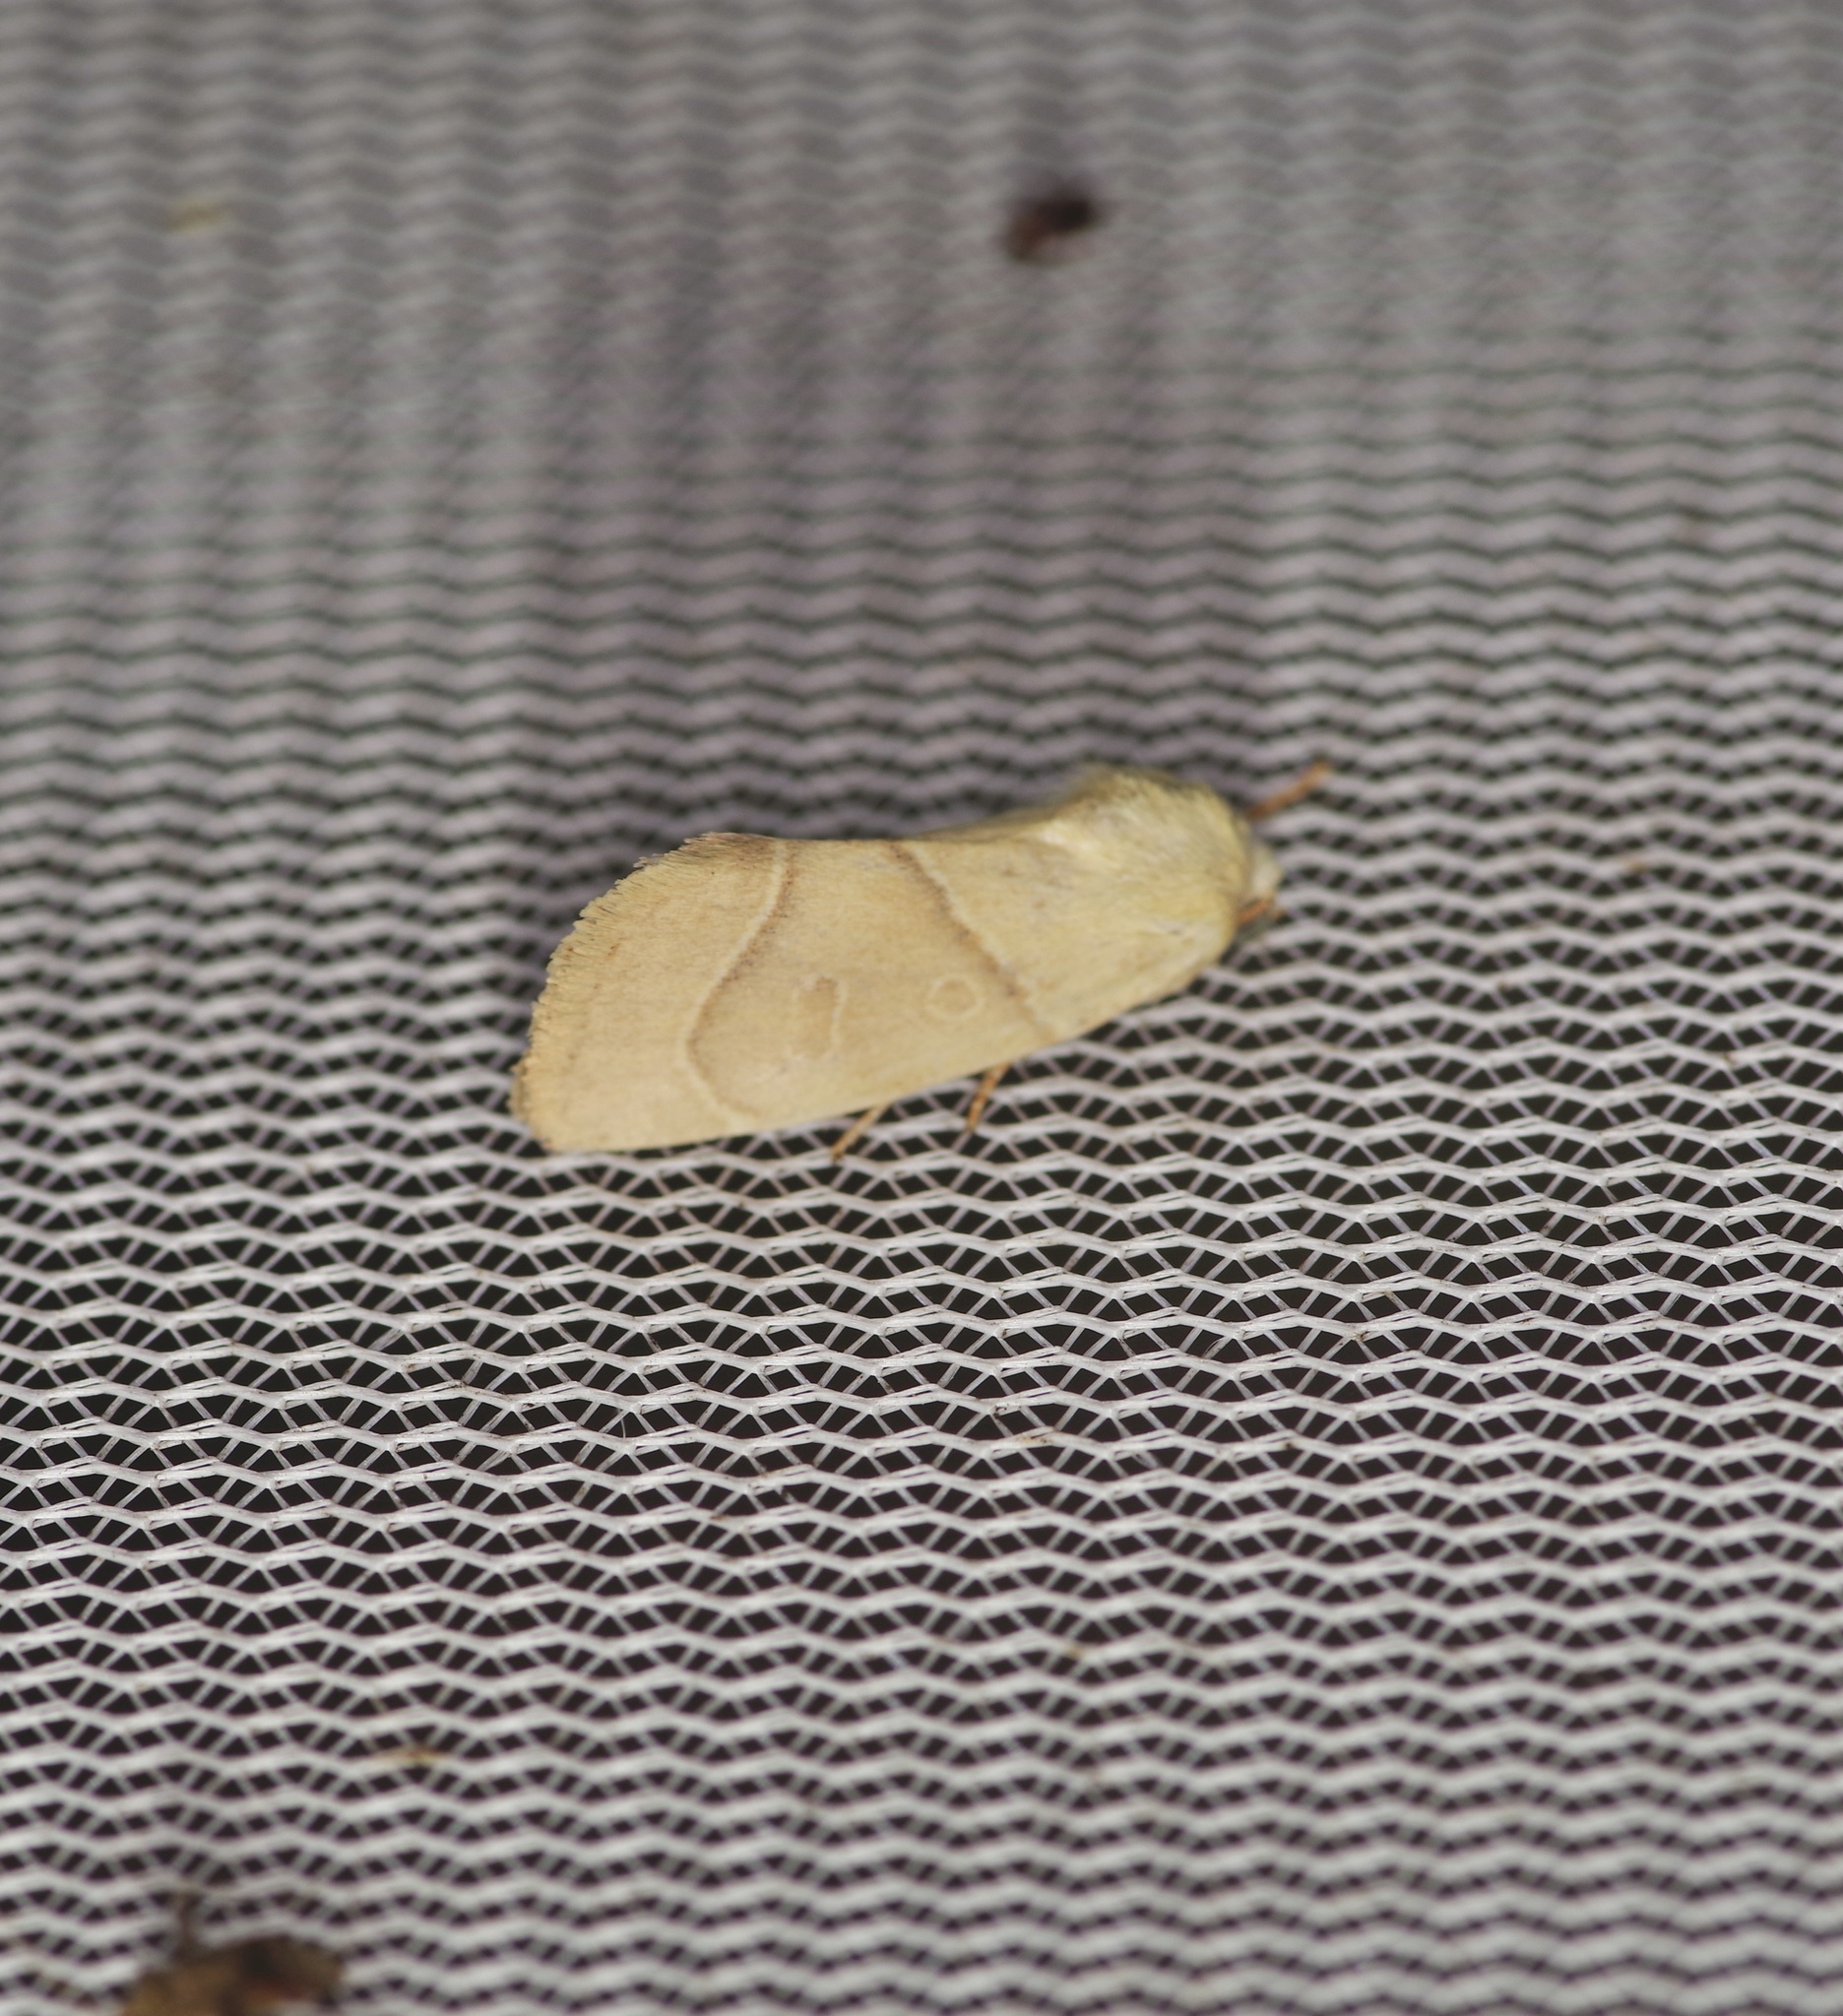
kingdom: Animalia
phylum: Arthropoda
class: Insecta
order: Lepidoptera
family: Noctuidae
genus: Cosmia
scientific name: Cosmia calami
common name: American dun-bar moth
